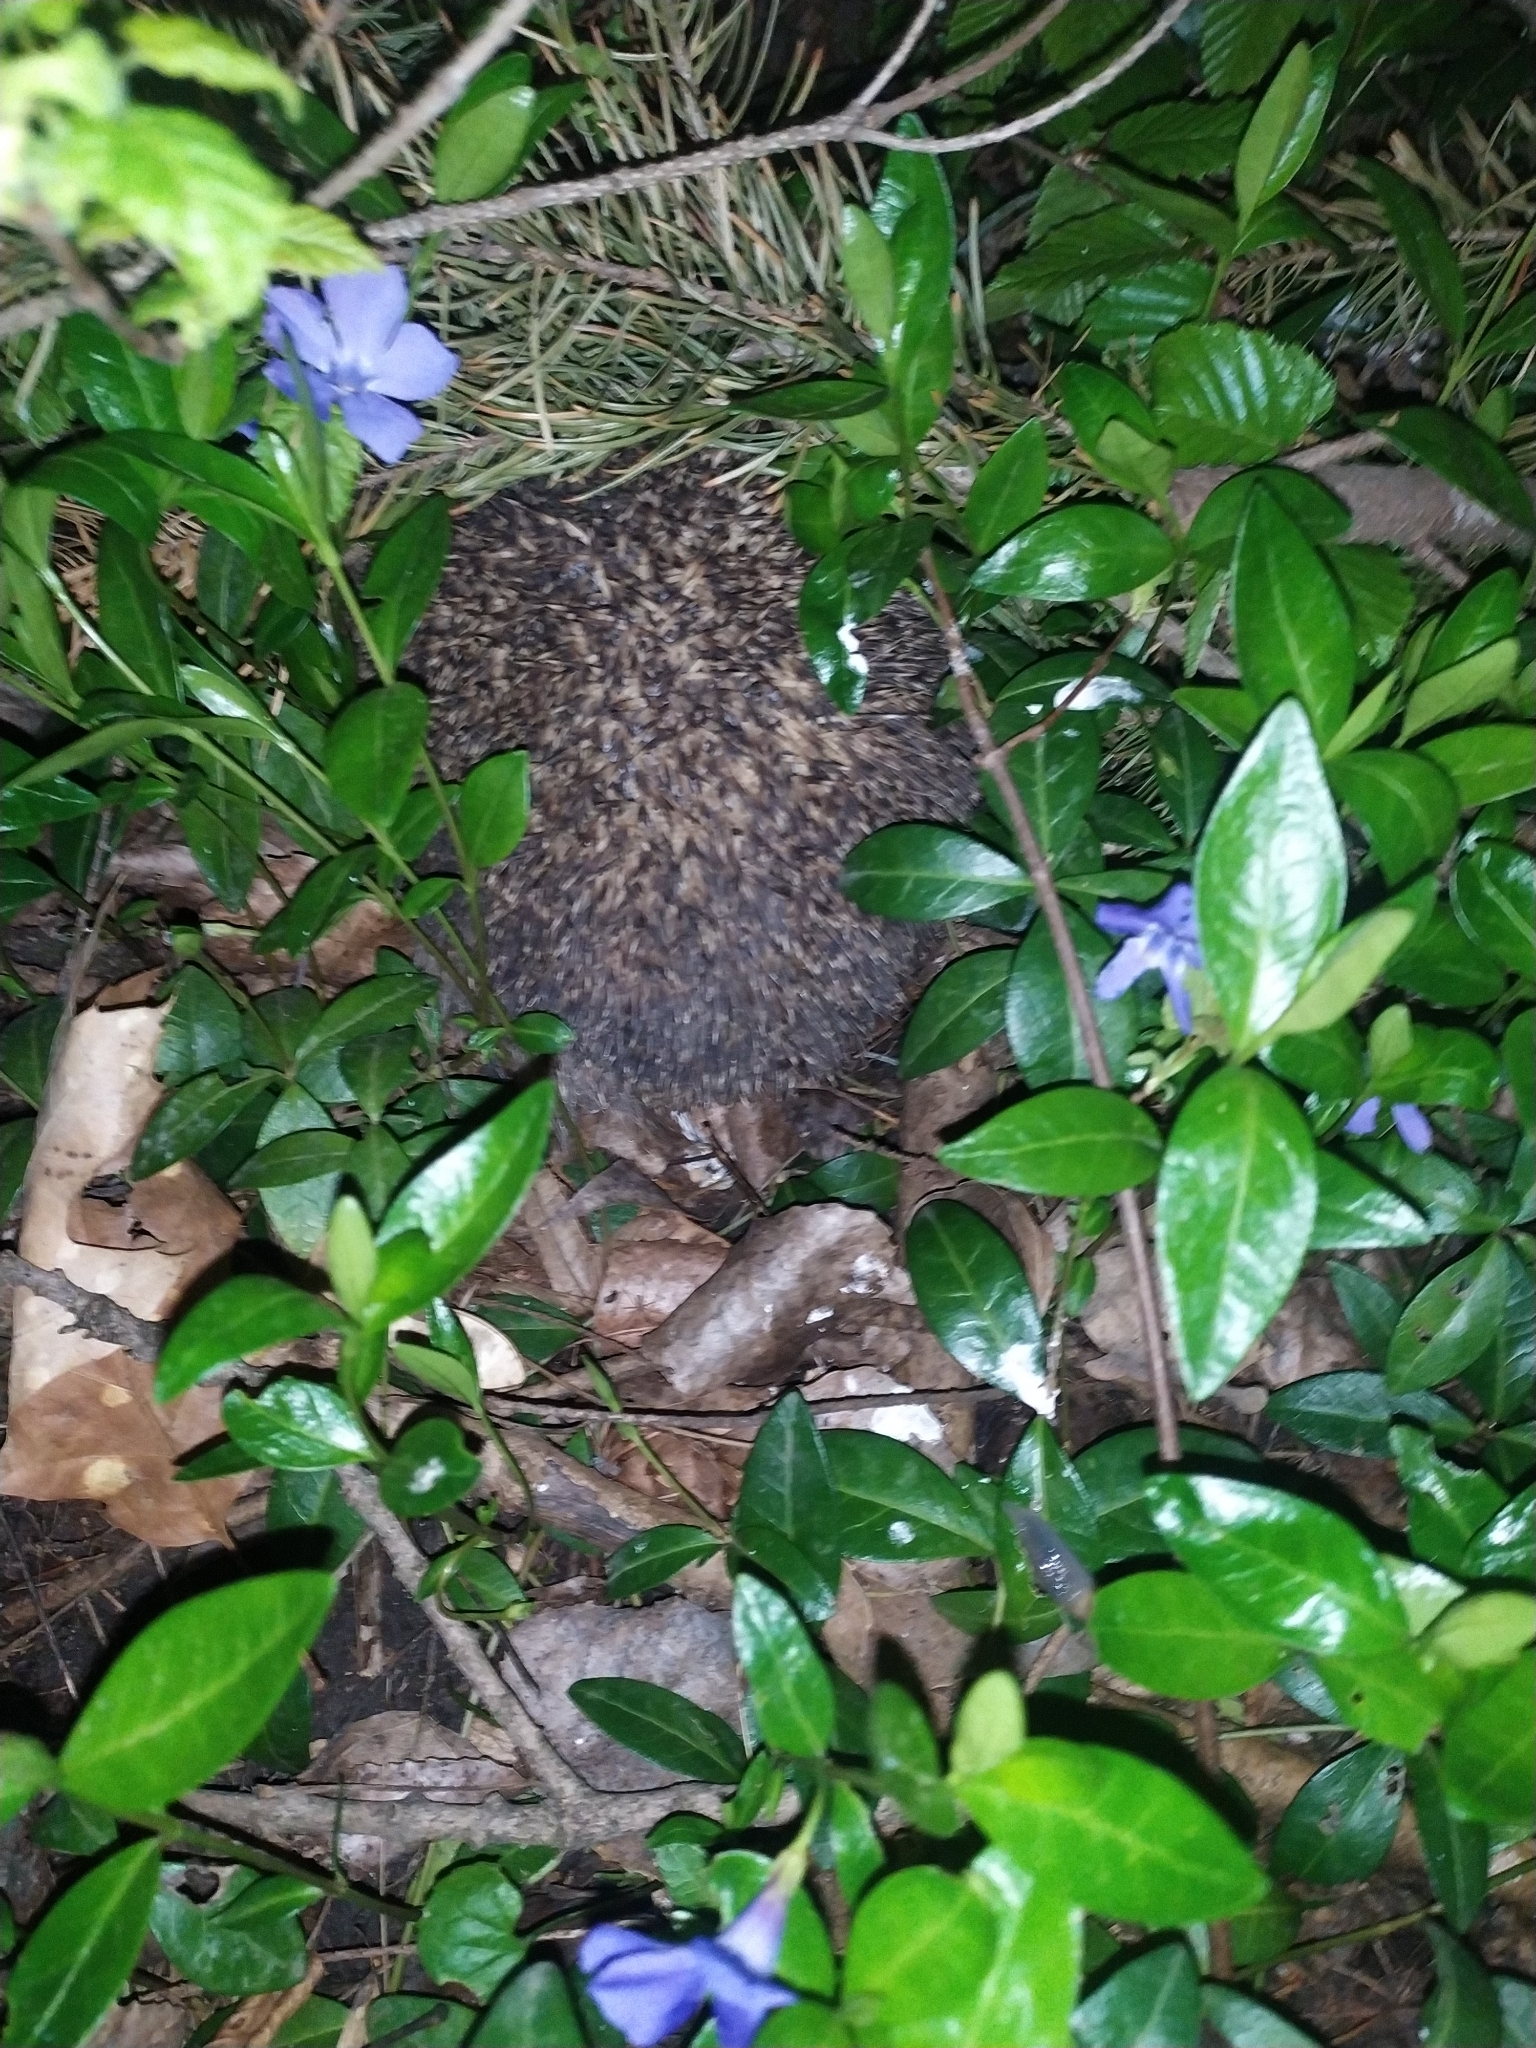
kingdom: Animalia
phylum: Chordata
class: Mammalia
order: Erinaceomorpha
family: Erinaceidae
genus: Erinaceus
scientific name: Erinaceus roumanicus
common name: Northern white-breasted hedgehog
